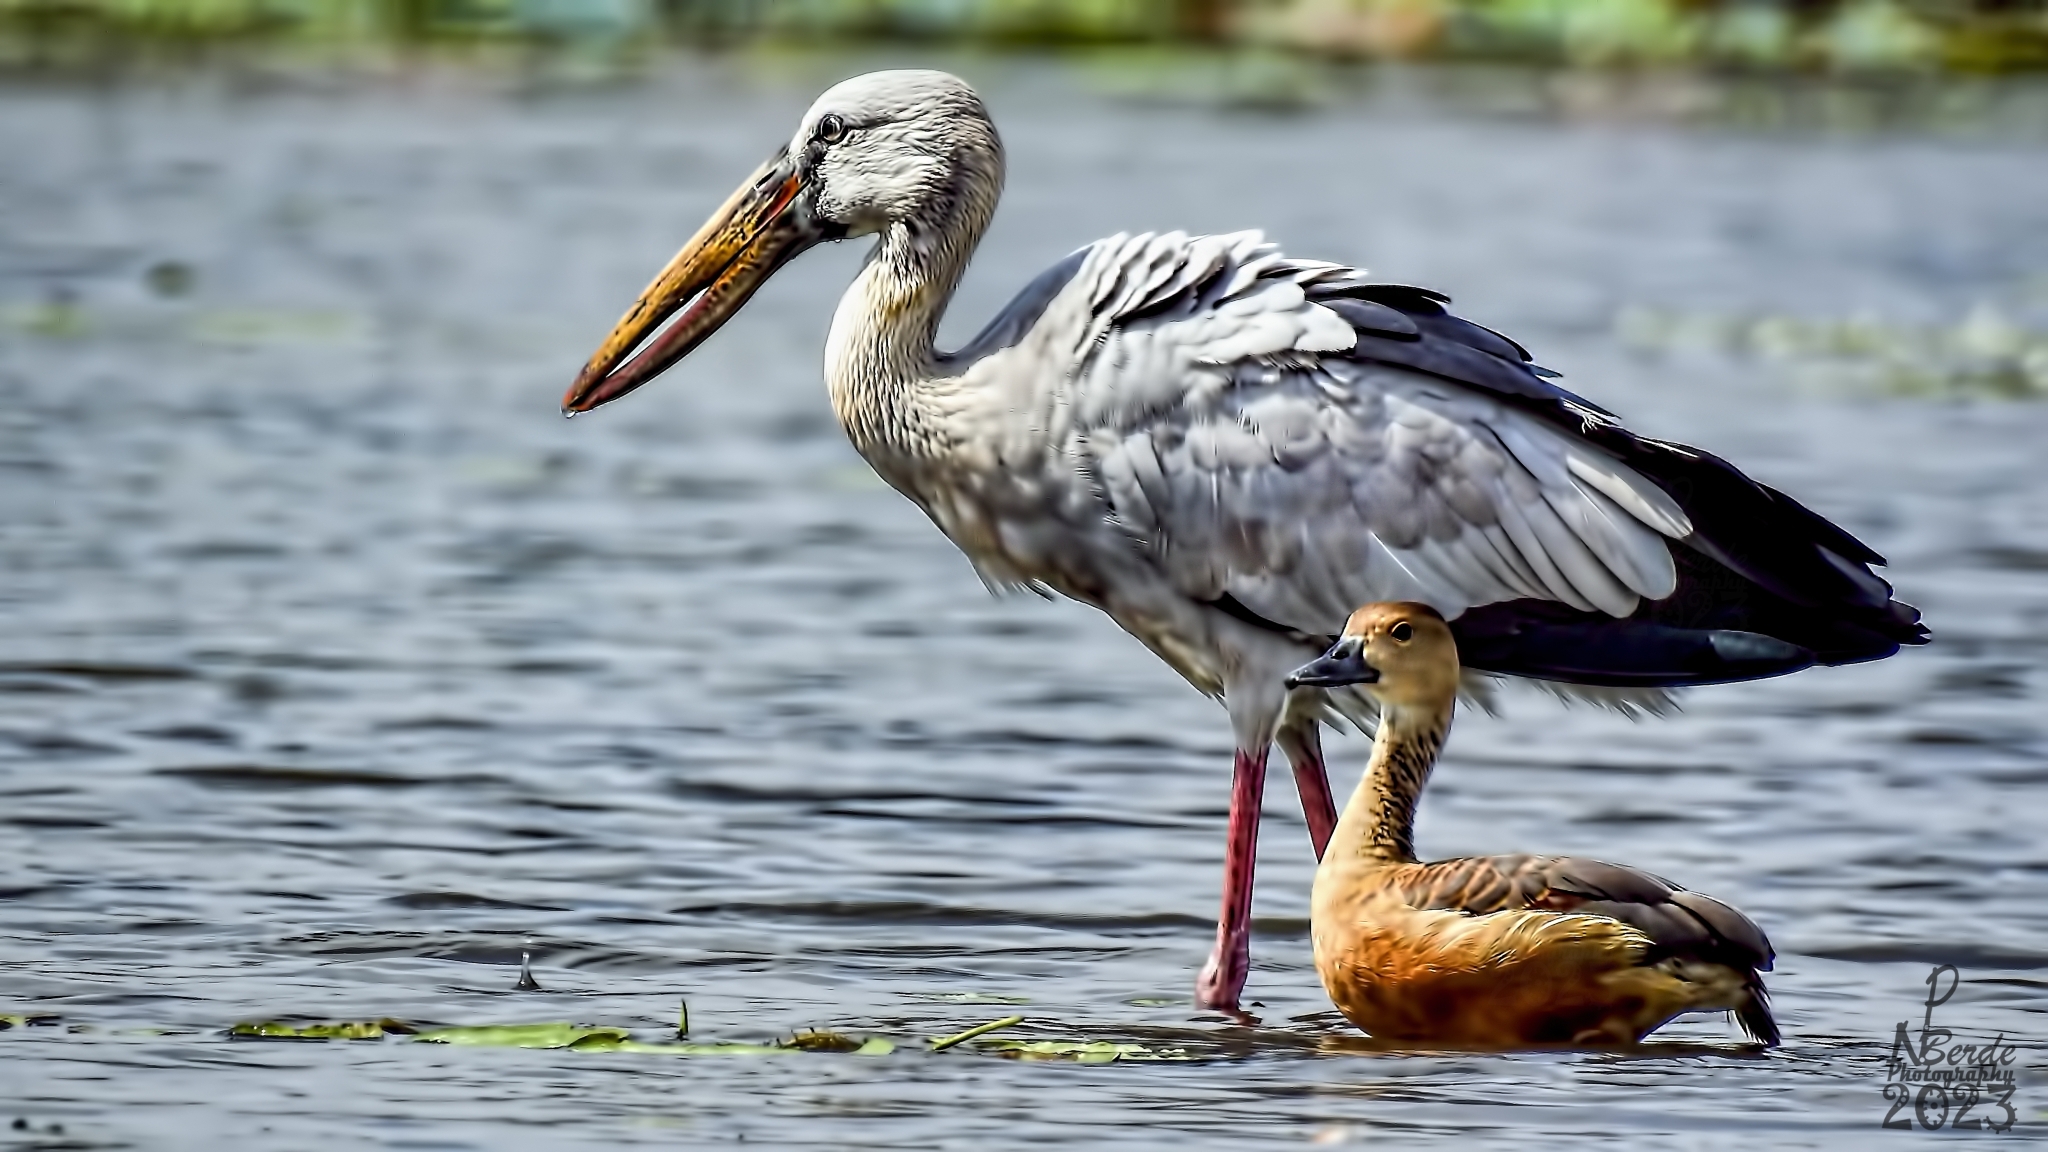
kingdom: Animalia
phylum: Chordata
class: Aves
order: Ciconiiformes
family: Ciconiidae
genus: Anastomus
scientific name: Anastomus oscitans
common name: Asian openbill
